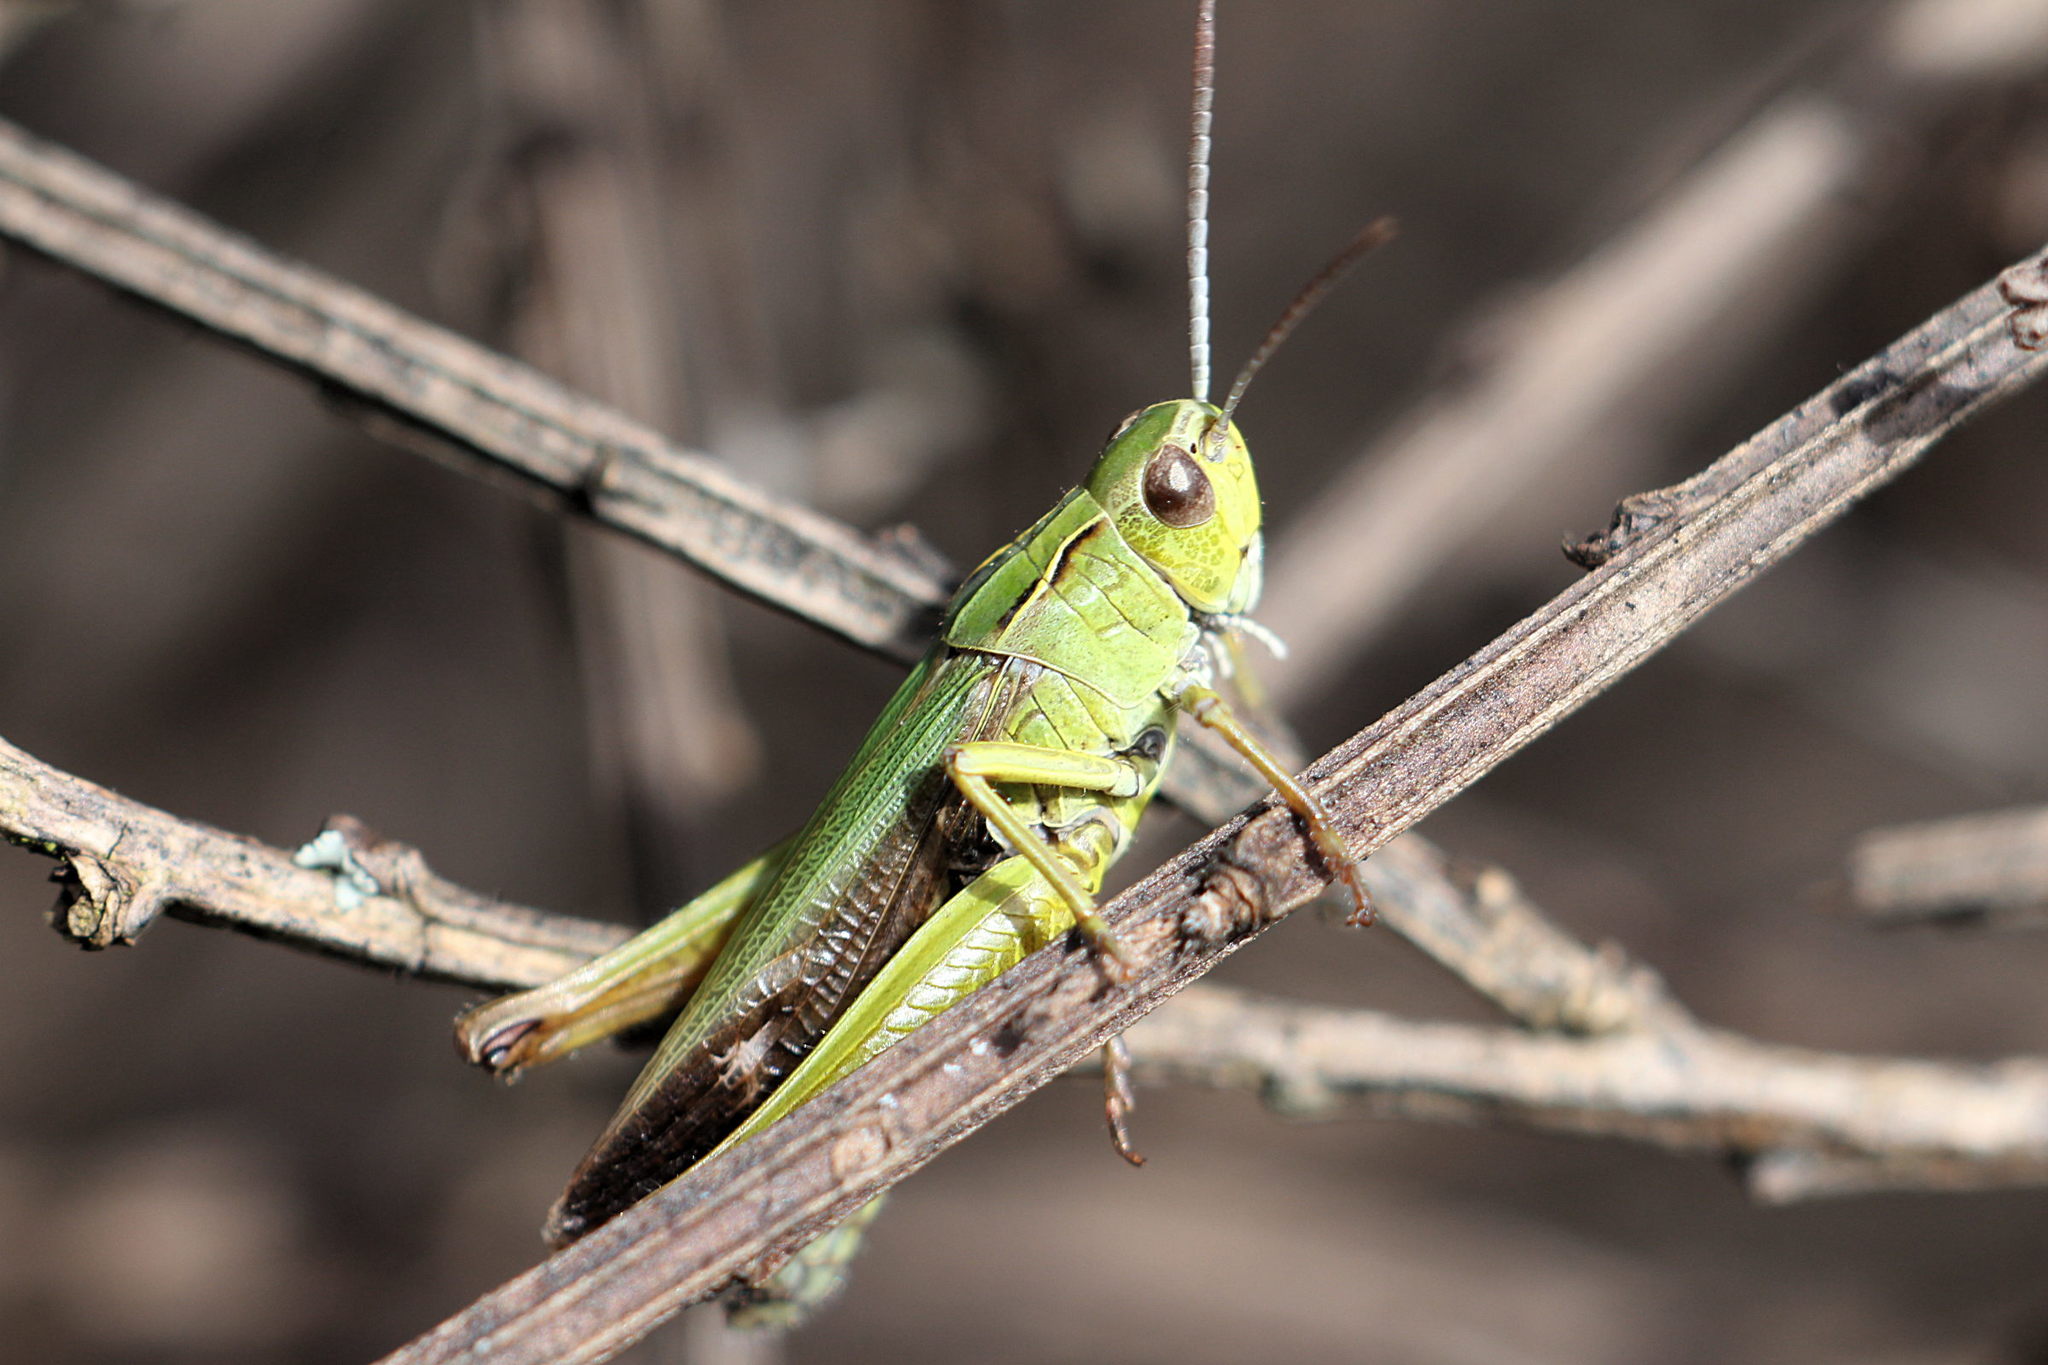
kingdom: Animalia
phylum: Arthropoda
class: Insecta
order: Orthoptera
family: Acrididae
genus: Omocestus
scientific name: Omocestus viridulus
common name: Common green grasshopper
